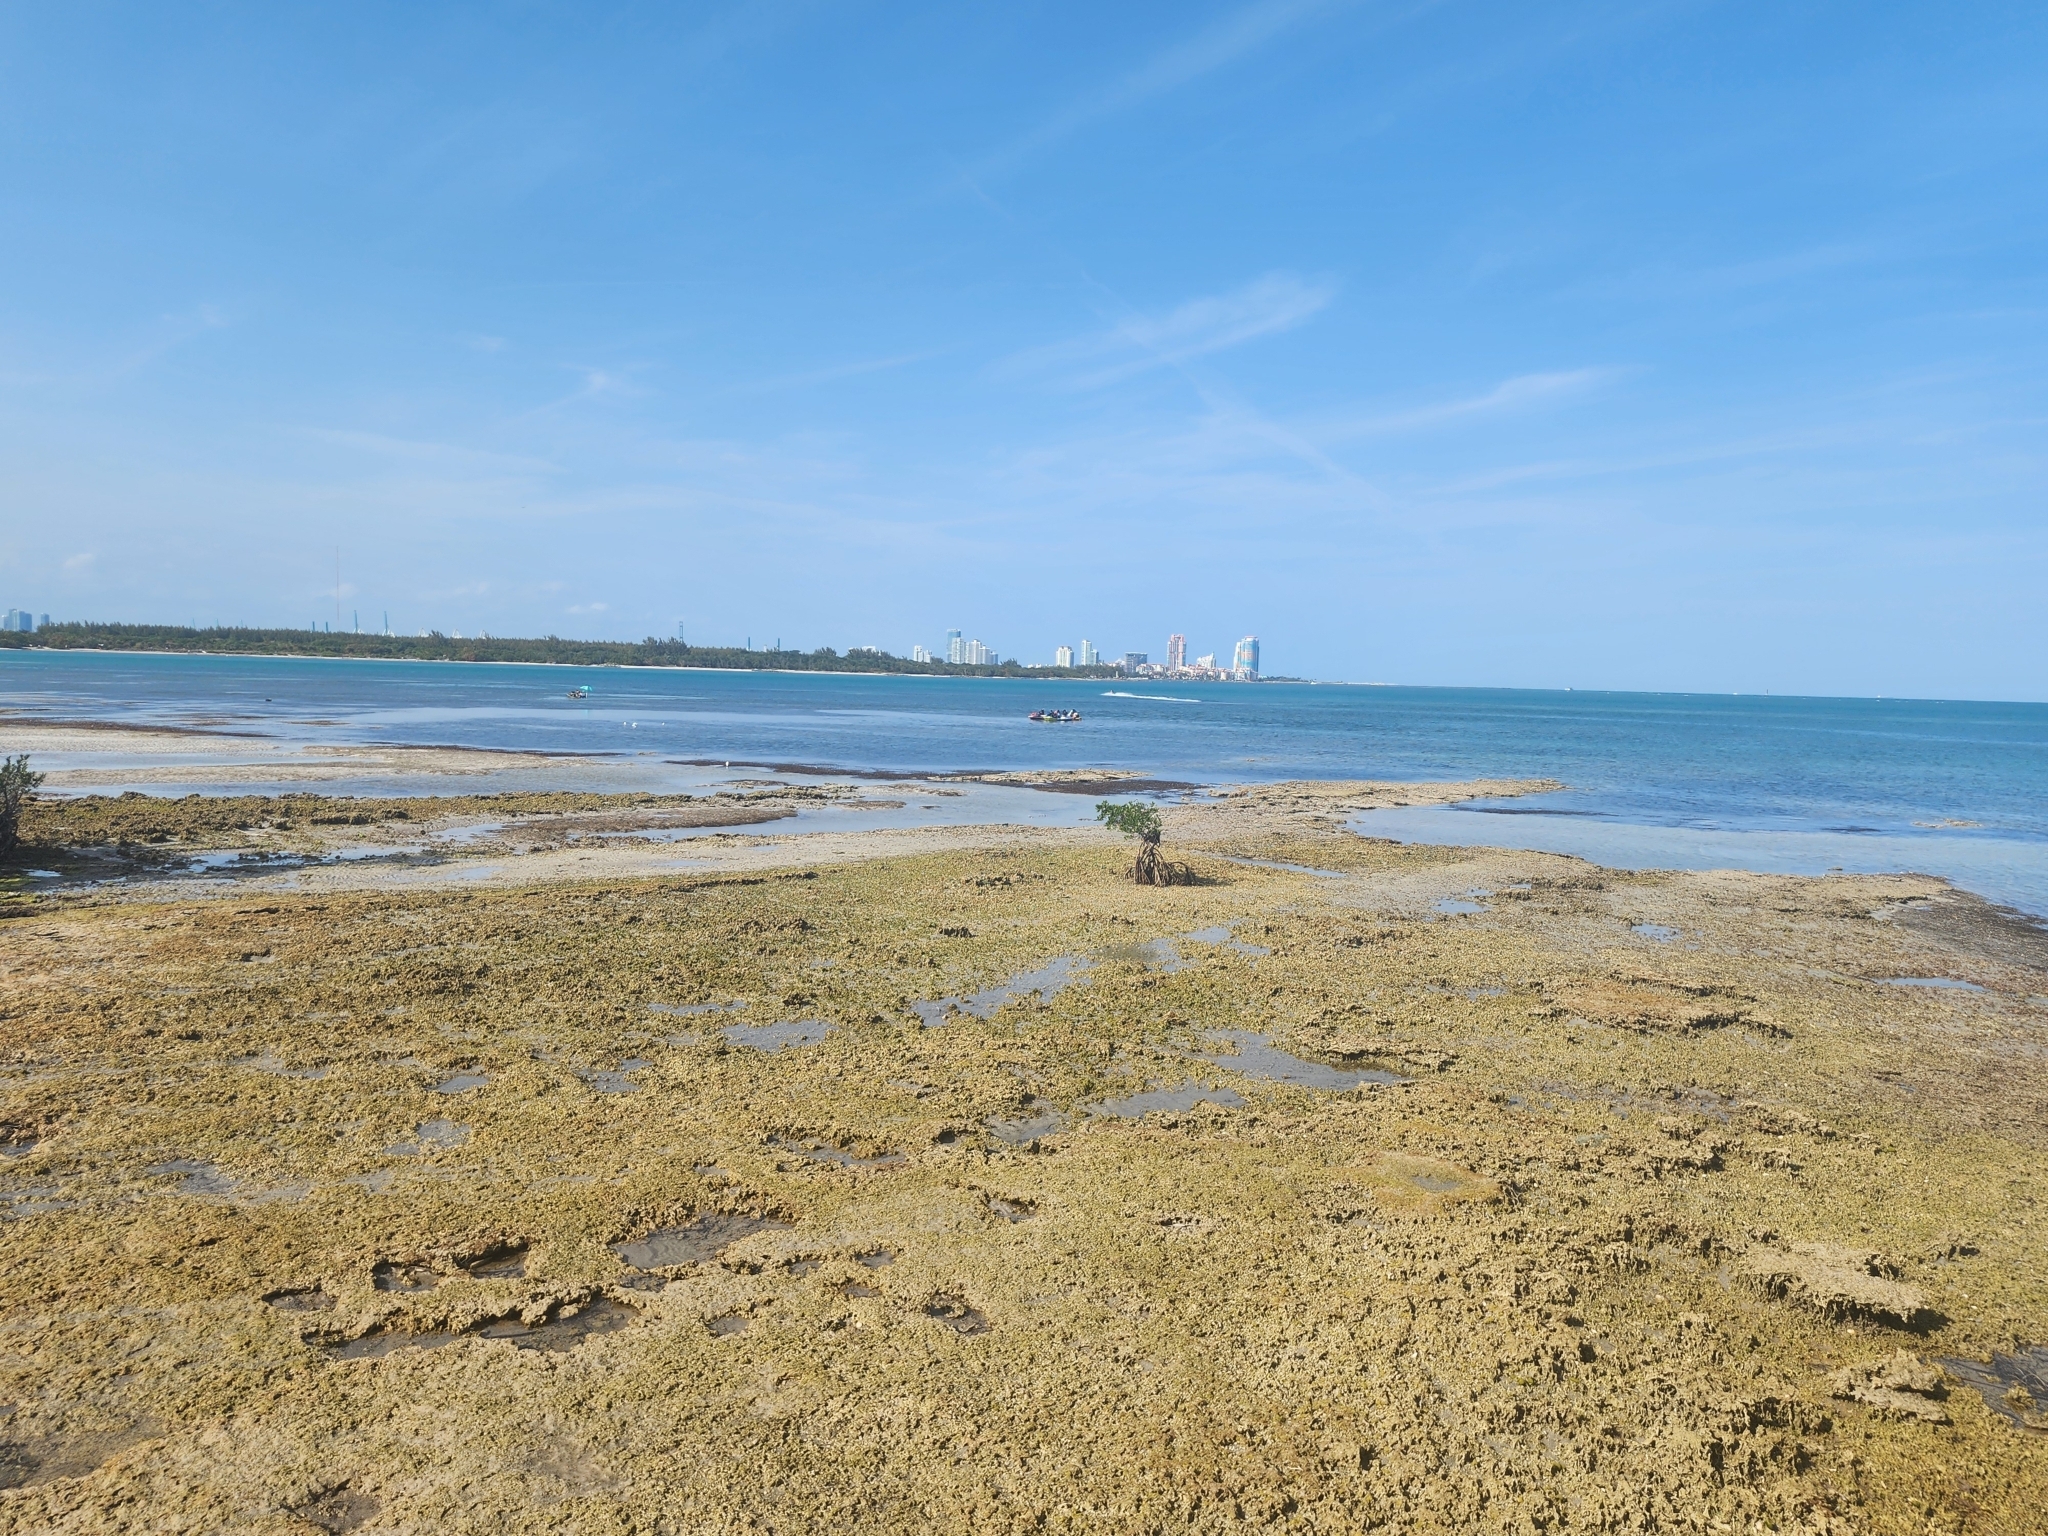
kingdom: Plantae
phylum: Tracheophyta
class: Magnoliopsida
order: Malpighiales
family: Rhizophoraceae
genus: Rhizophora
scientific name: Rhizophora mangle
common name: Red mangrove
